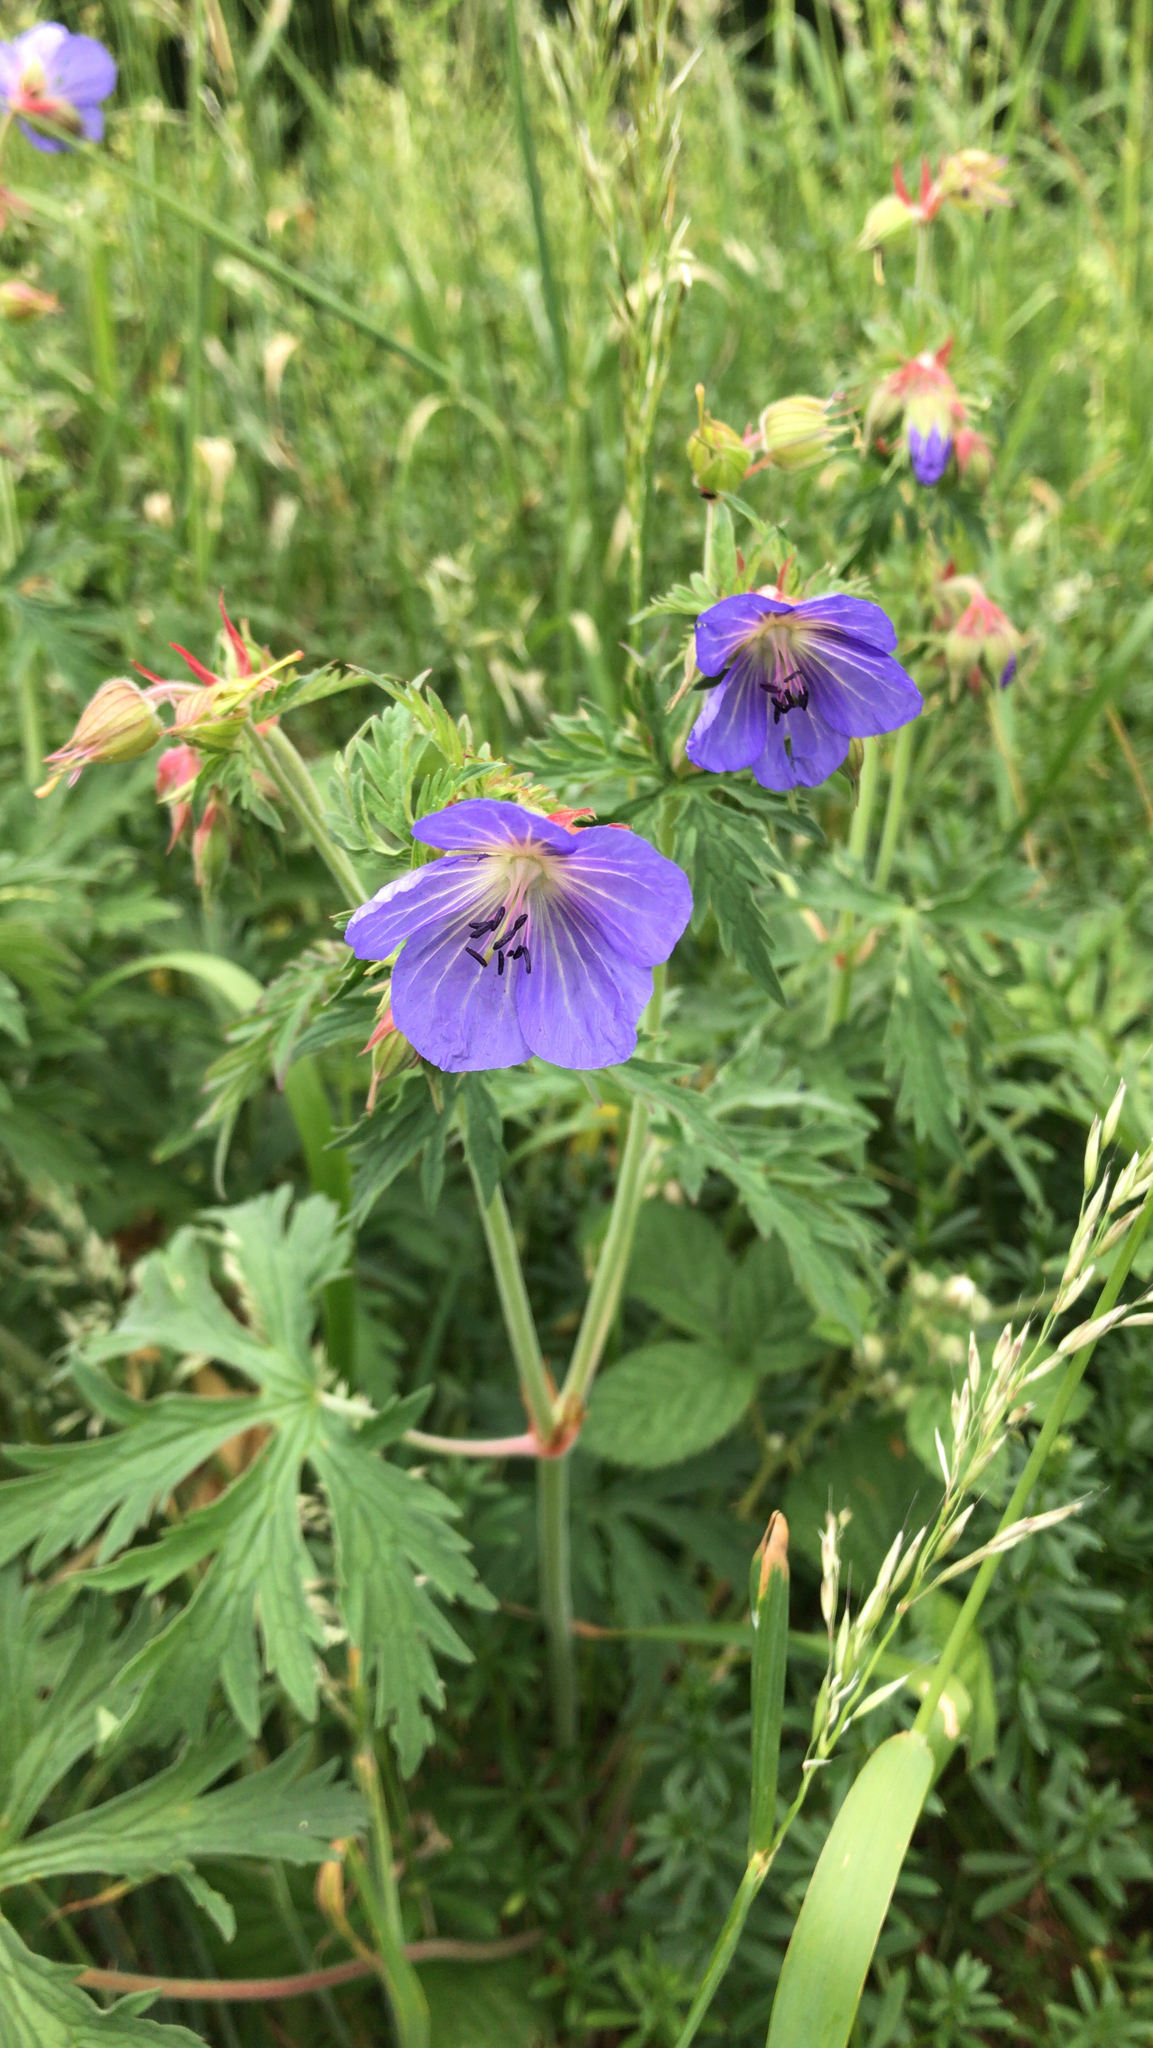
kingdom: Plantae
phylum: Tracheophyta
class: Magnoliopsida
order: Geraniales
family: Geraniaceae
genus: Geranium
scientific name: Geranium pratense
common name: Meadow crane's-bill
